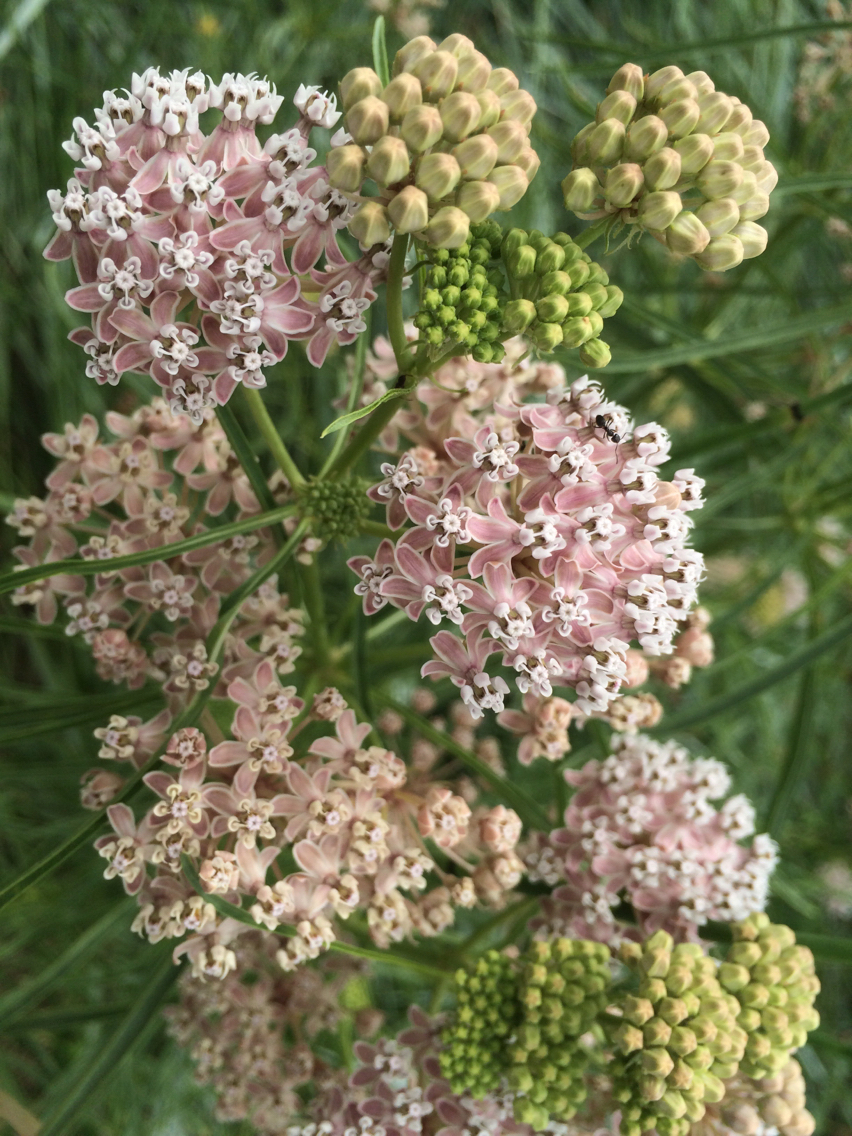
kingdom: Plantae
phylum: Tracheophyta
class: Magnoliopsida
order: Gentianales
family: Apocynaceae
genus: Asclepias
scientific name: Asclepias fascicularis
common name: Mexican milkweed
